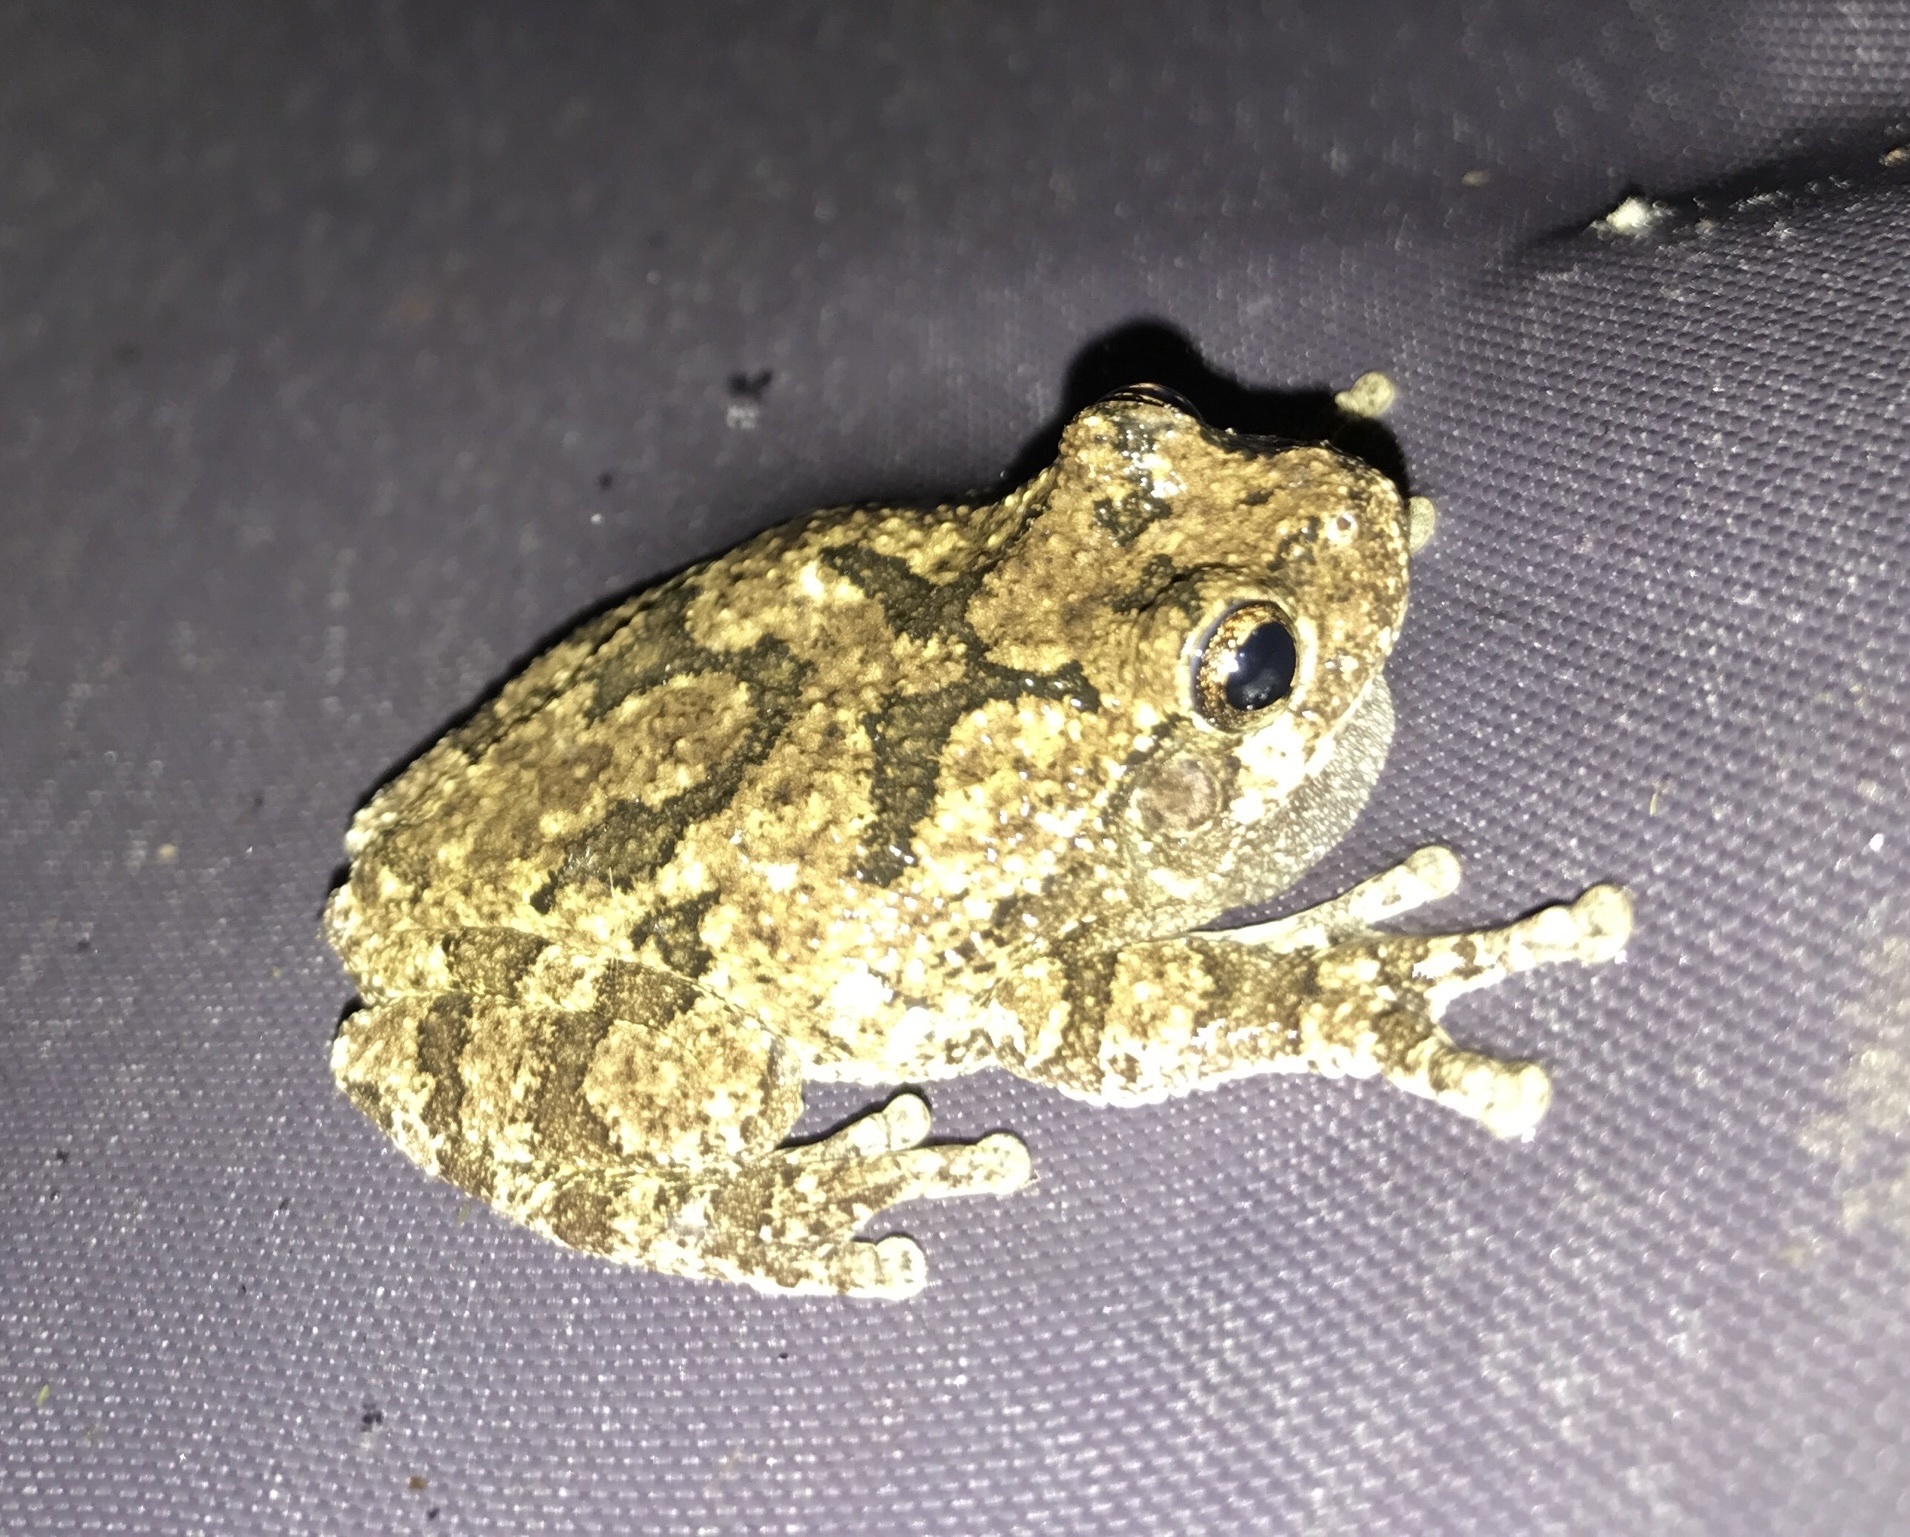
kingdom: Animalia
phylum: Chordata
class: Amphibia
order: Anura
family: Hylidae
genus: Dryophytes
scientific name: Dryophytes chrysoscelis
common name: Cope's gray treefrog
